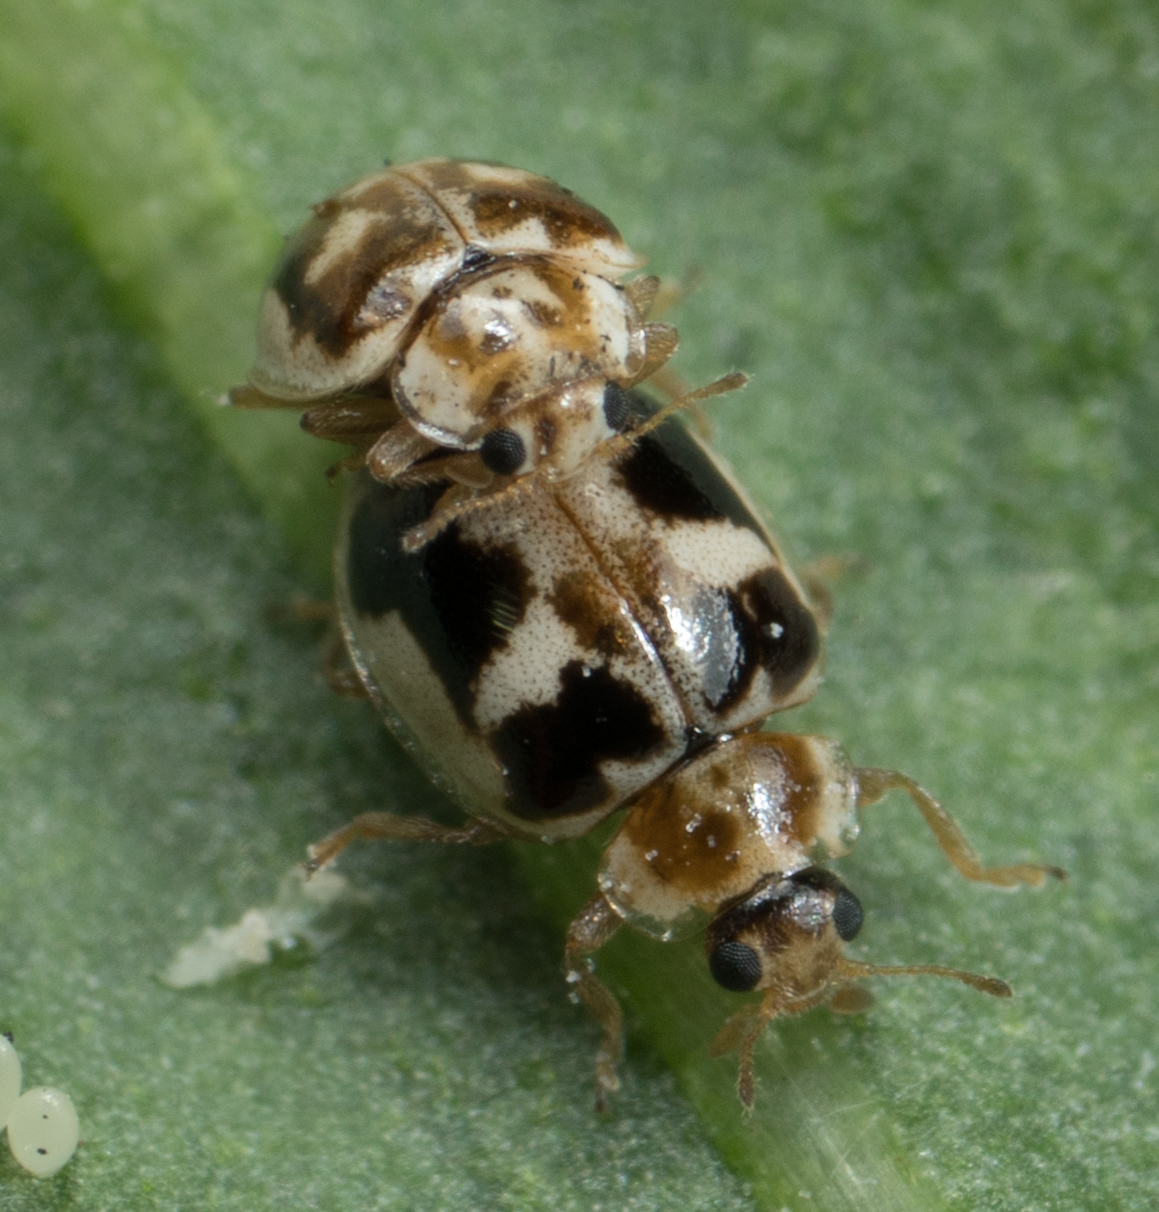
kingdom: Animalia
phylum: Arthropoda
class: Insecta
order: Coleoptera
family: Coccinellidae
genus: Psyllobora
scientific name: Psyllobora renifer
